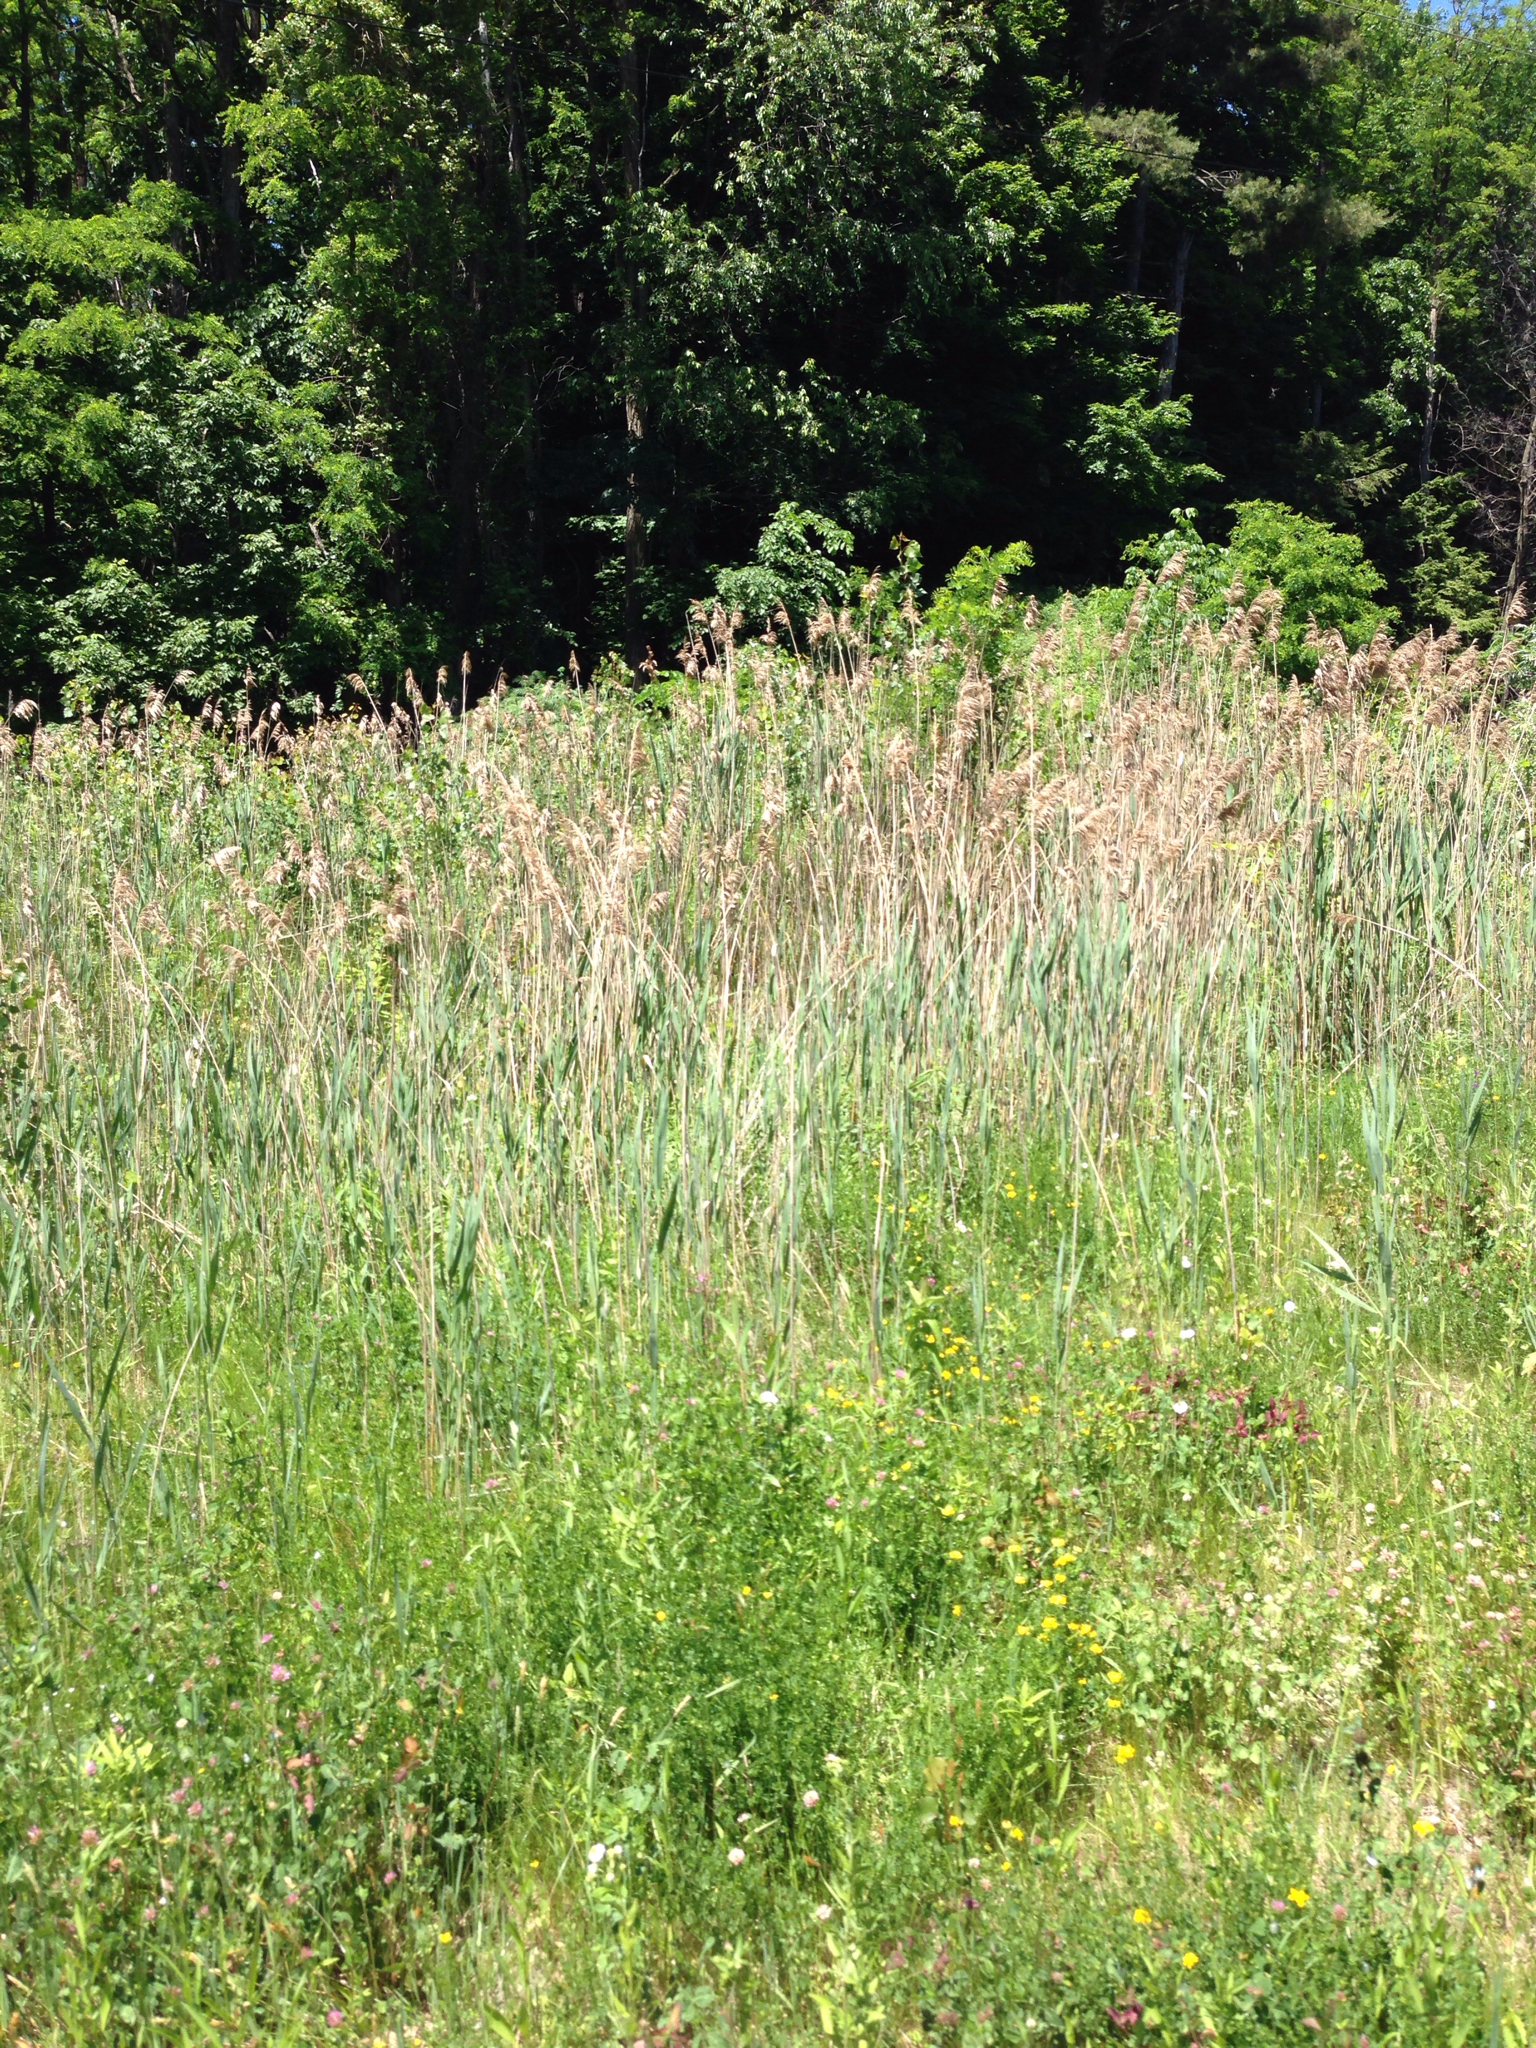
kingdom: Plantae
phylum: Tracheophyta
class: Liliopsida
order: Poales
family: Poaceae
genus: Phragmites
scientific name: Phragmites australis
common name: Common reed
